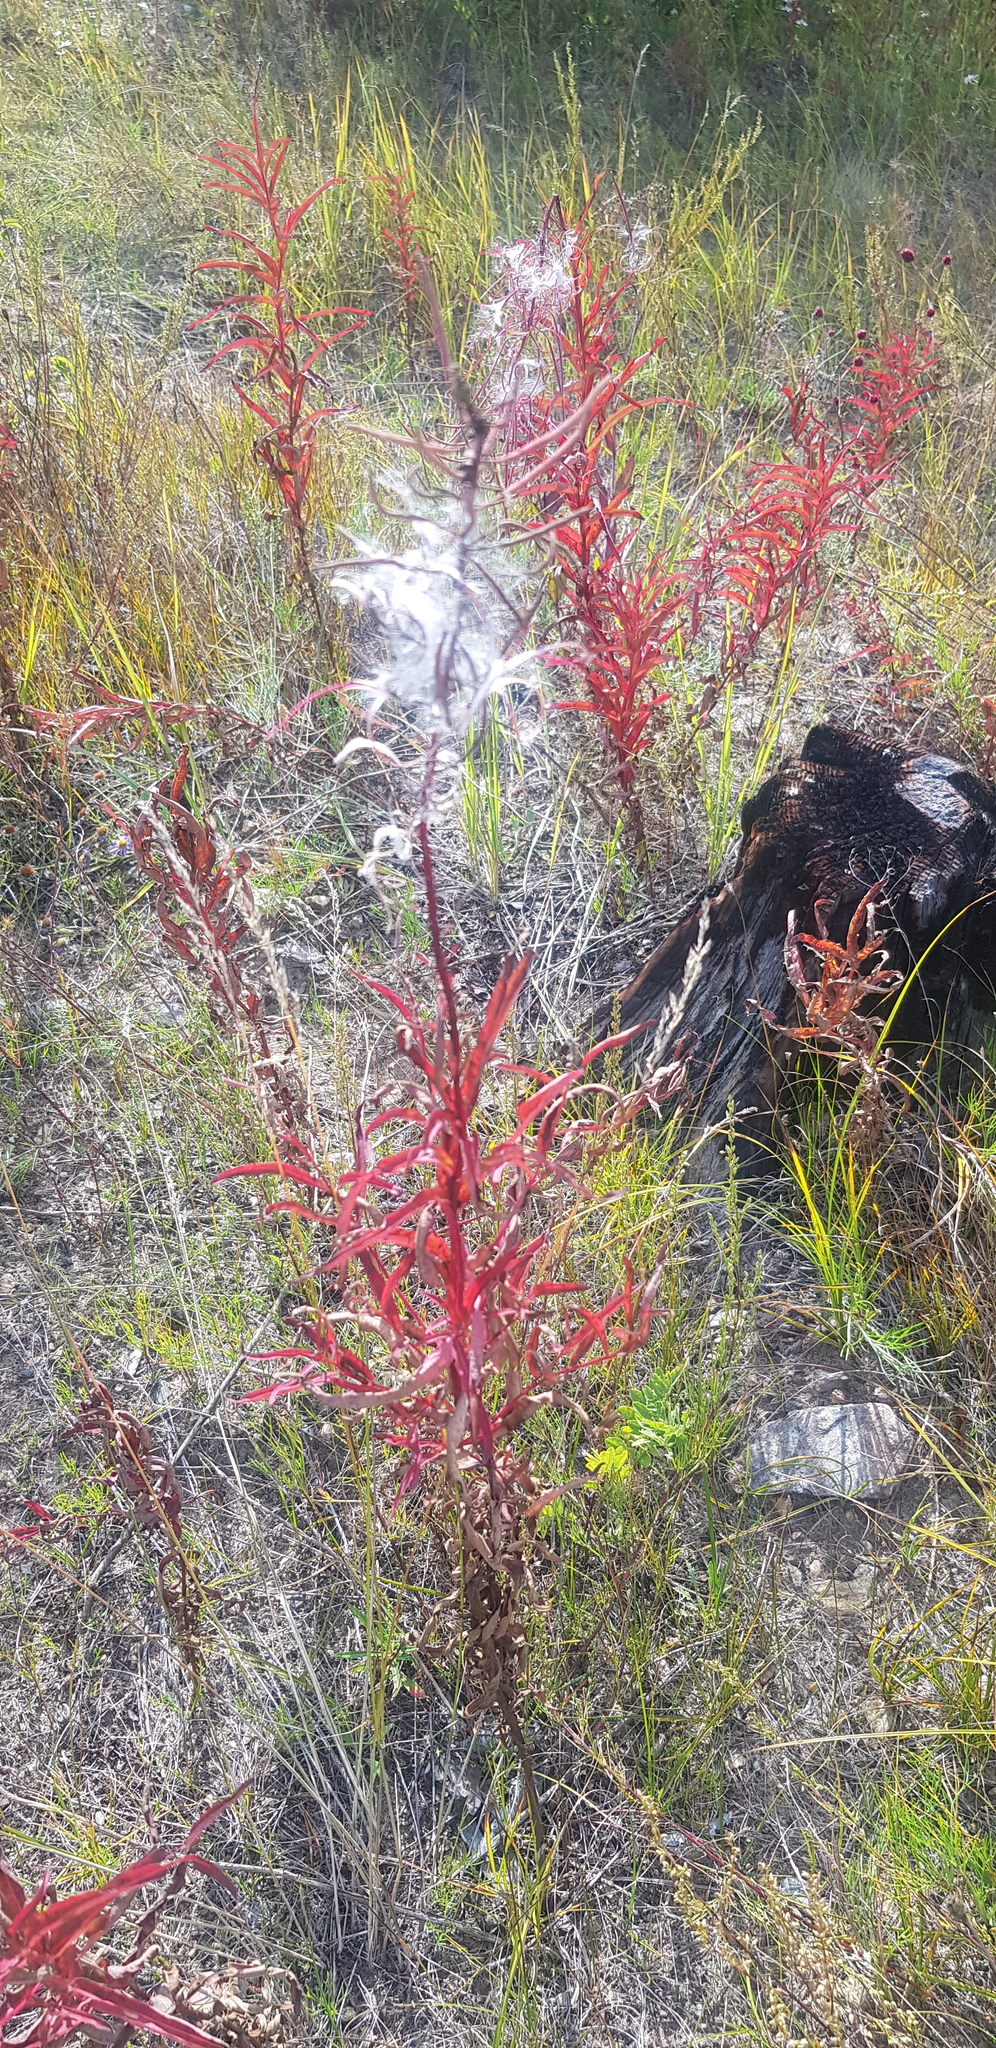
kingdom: Plantae
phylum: Tracheophyta
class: Magnoliopsida
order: Myrtales
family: Onagraceae
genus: Chamaenerion
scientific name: Chamaenerion angustifolium
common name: Fireweed
